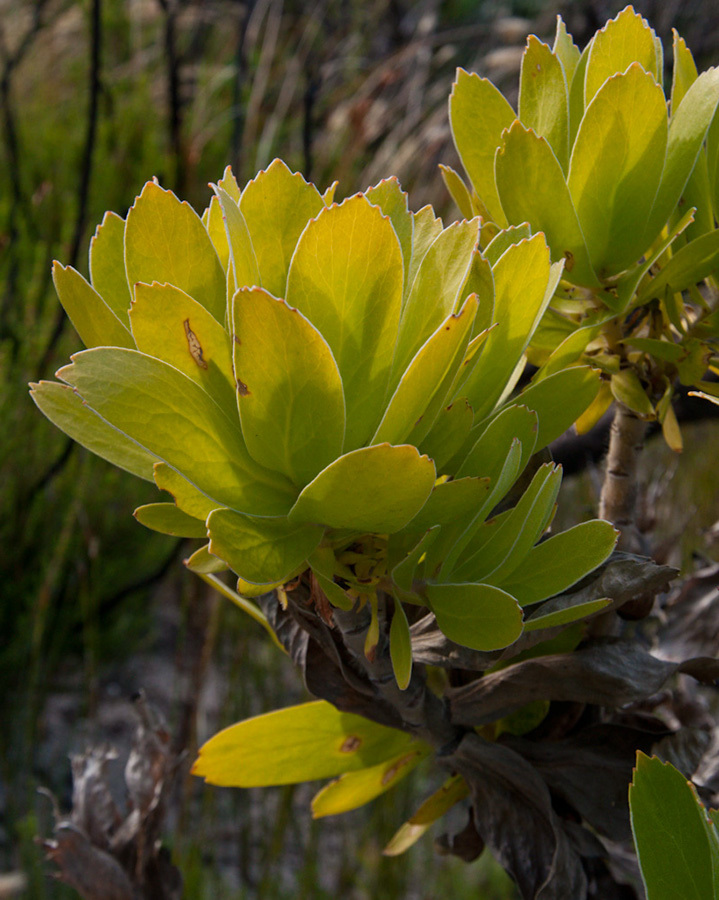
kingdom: Plantae
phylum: Tracheophyta
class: Magnoliopsida
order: Proteales
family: Proteaceae
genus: Leucospermum
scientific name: Leucospermum conocarpodendron
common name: Tree pincushion
